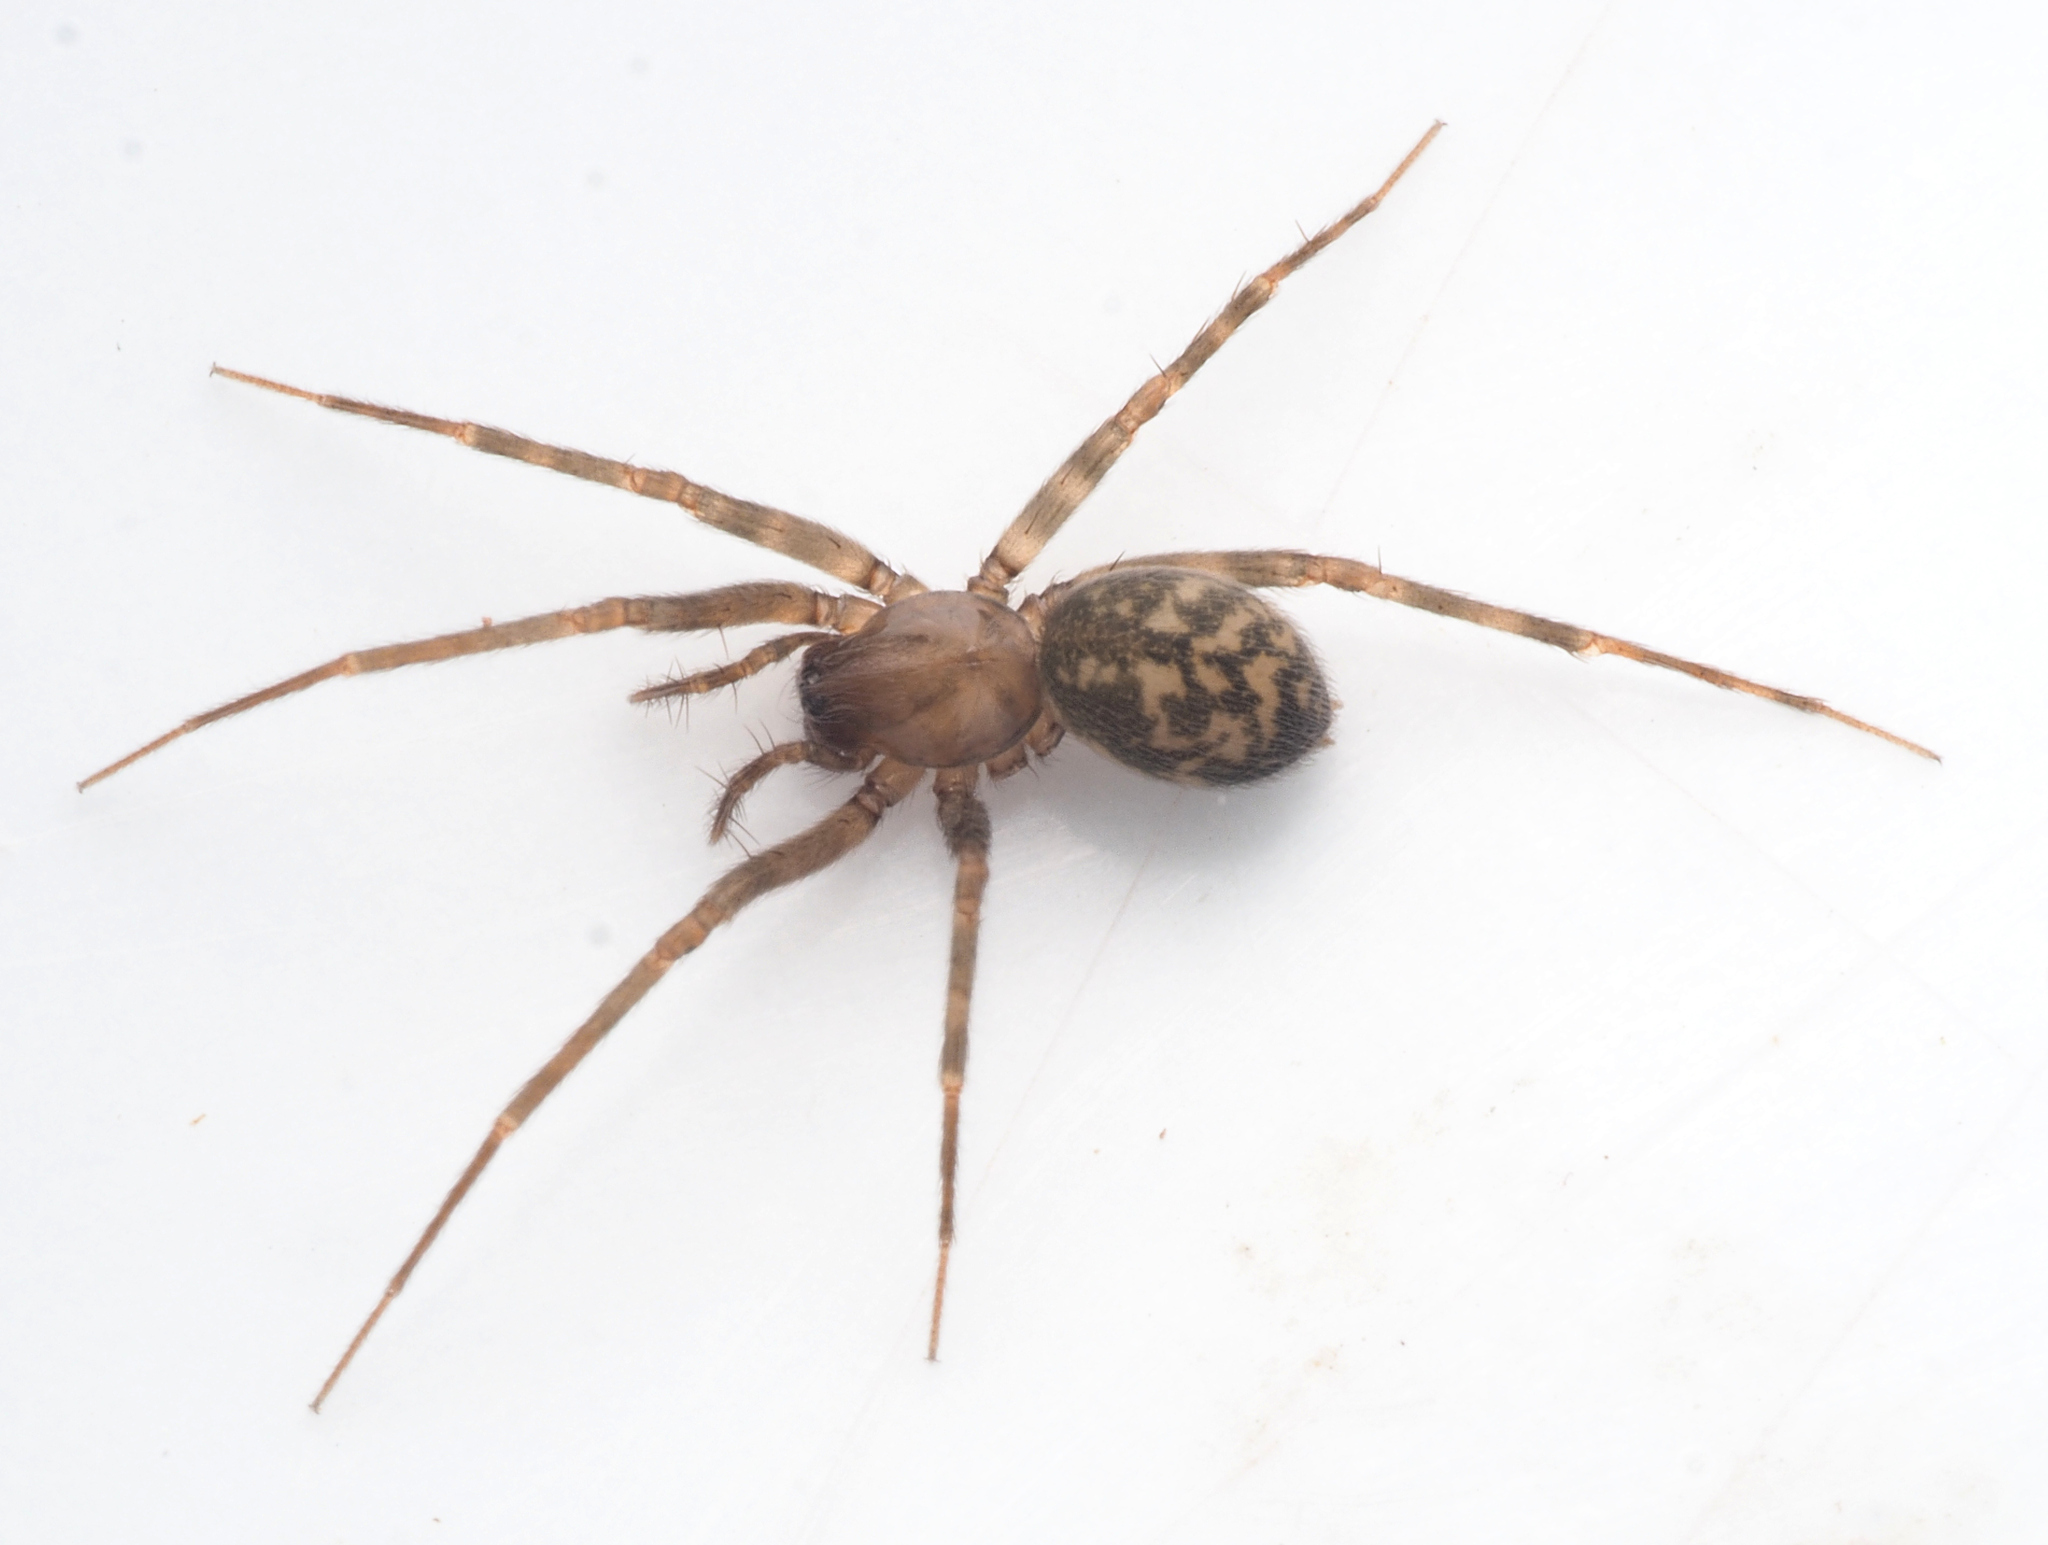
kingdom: Animalia
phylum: Arthropoda
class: Arachnida
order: Araneae
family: Desidae
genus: Barahna
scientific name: Barahna booloumba
